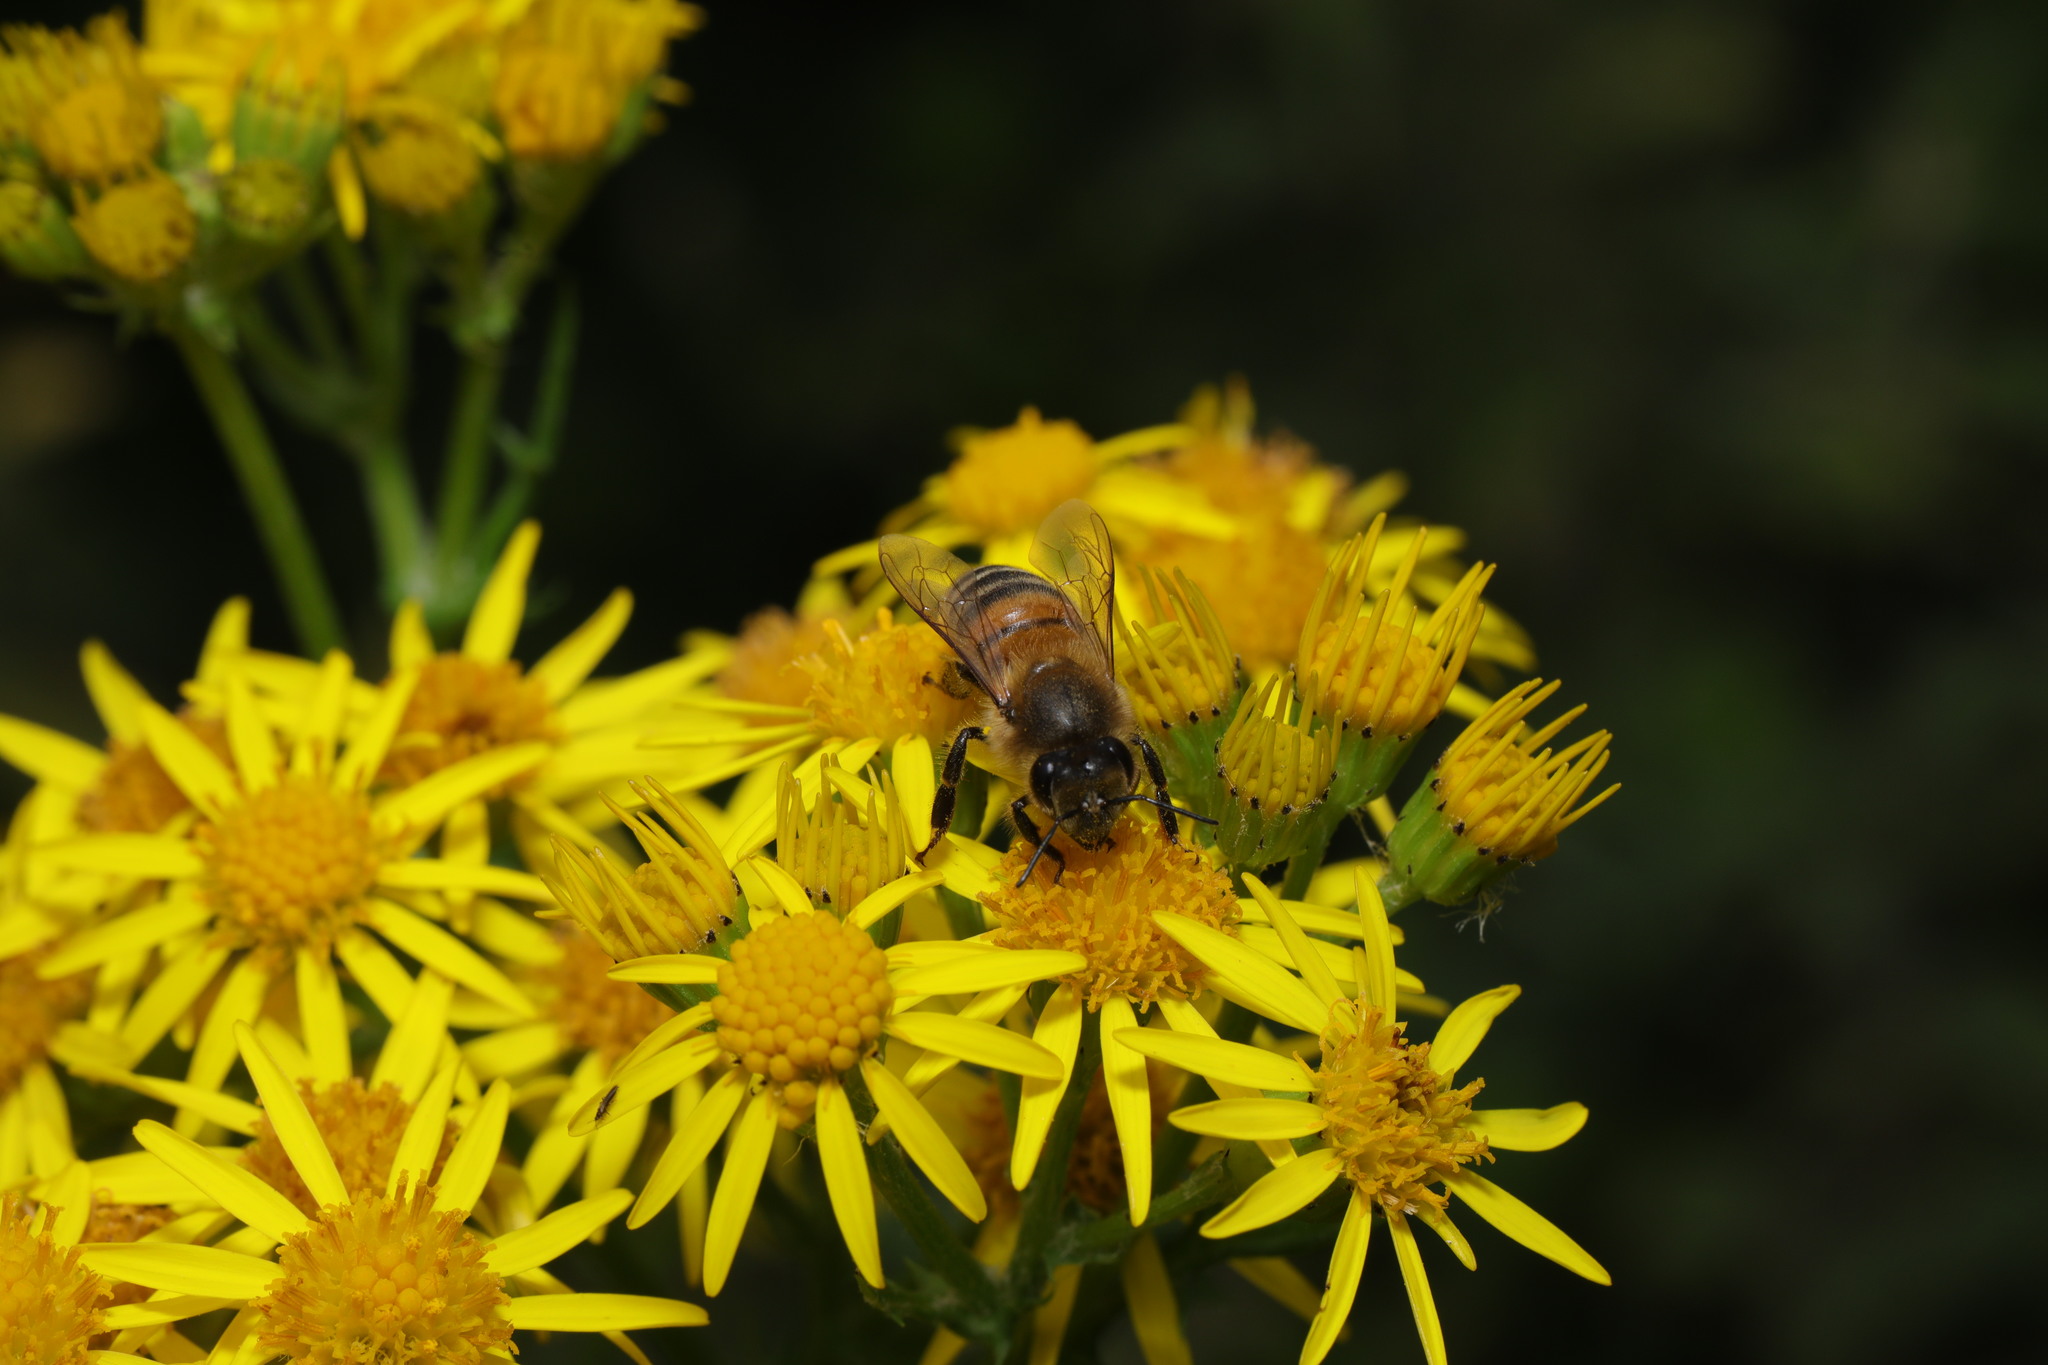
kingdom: Animalia
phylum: Arthropoda
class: Insecta
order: Hymenoptera
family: Apidae
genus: Apis
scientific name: Apis mellifera
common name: Honey bee
